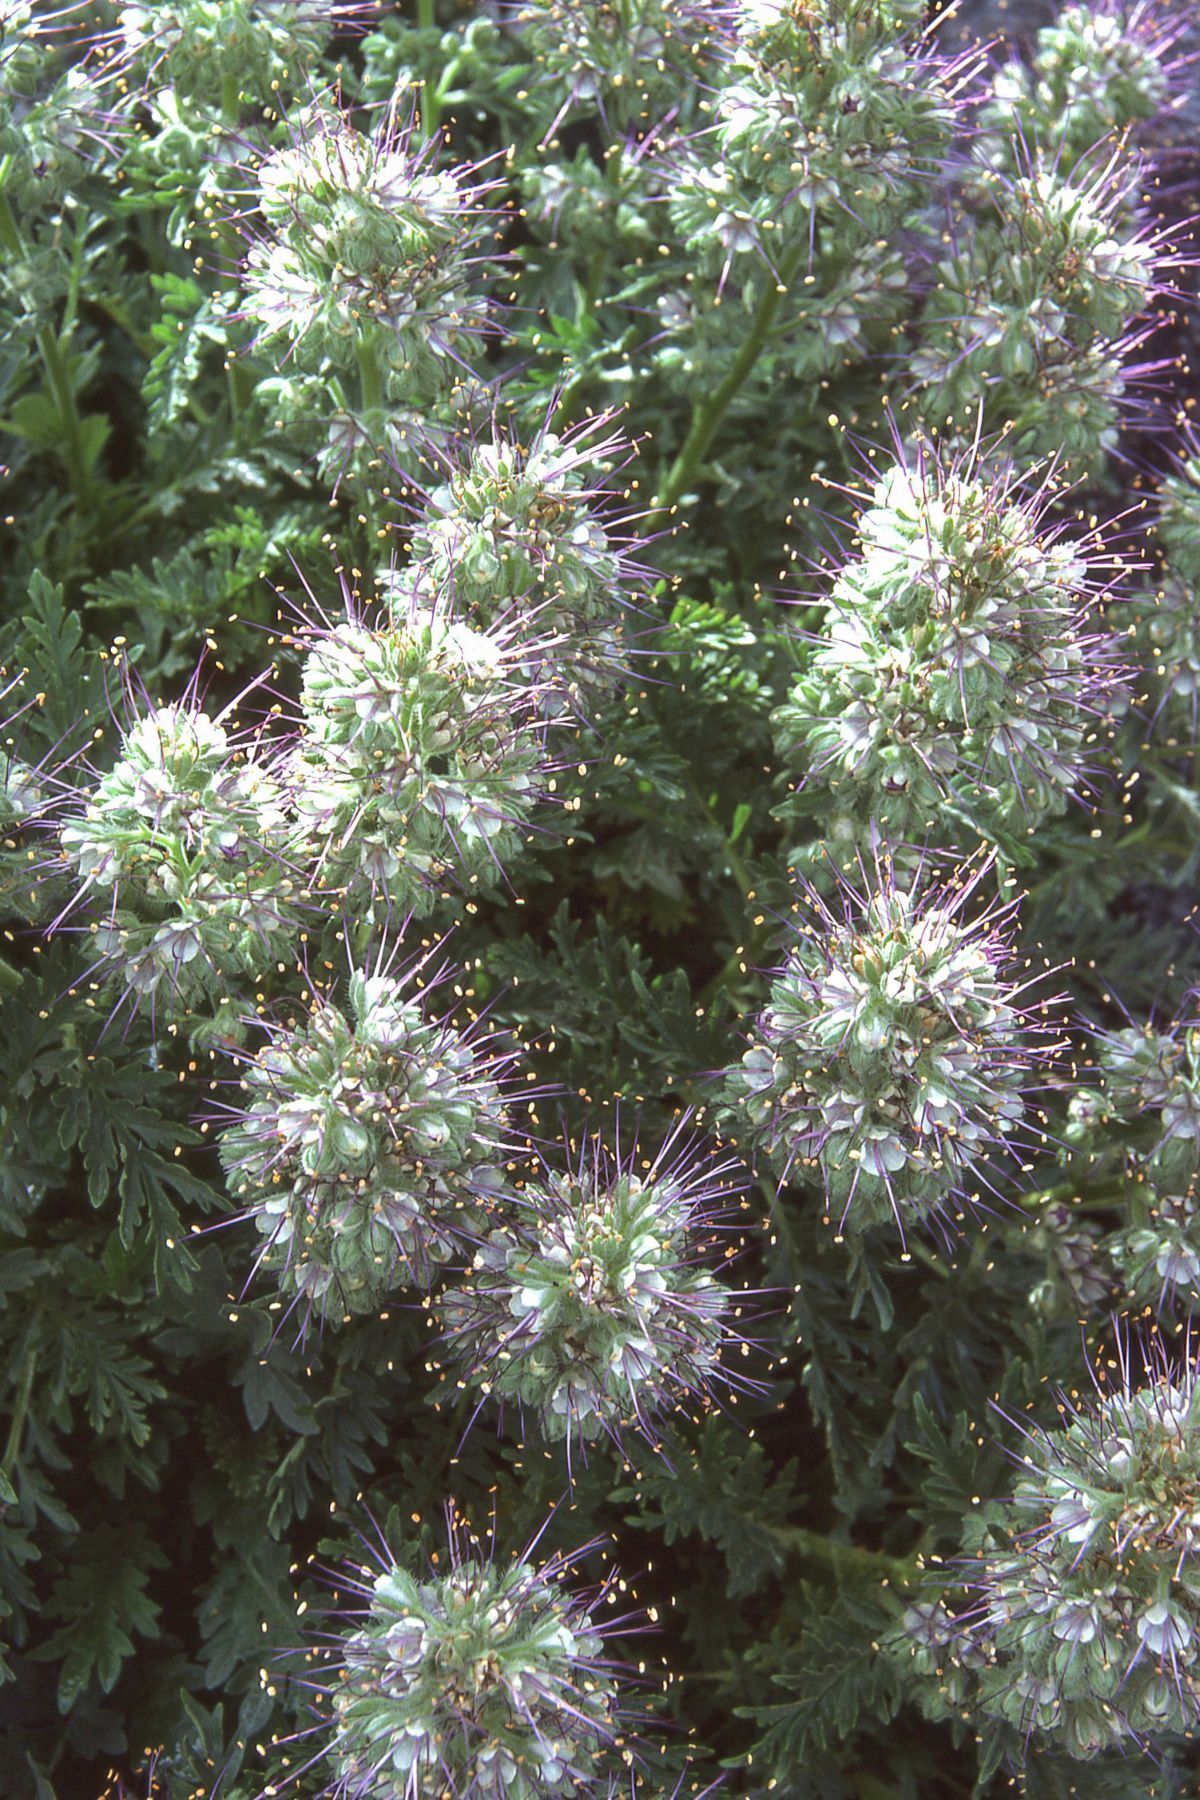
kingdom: Plantae
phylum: Tracheophyta
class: Magnoliopsida
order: Boraginales
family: Hydrophyllaceae
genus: Phacelia
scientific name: Phacelia lenta
